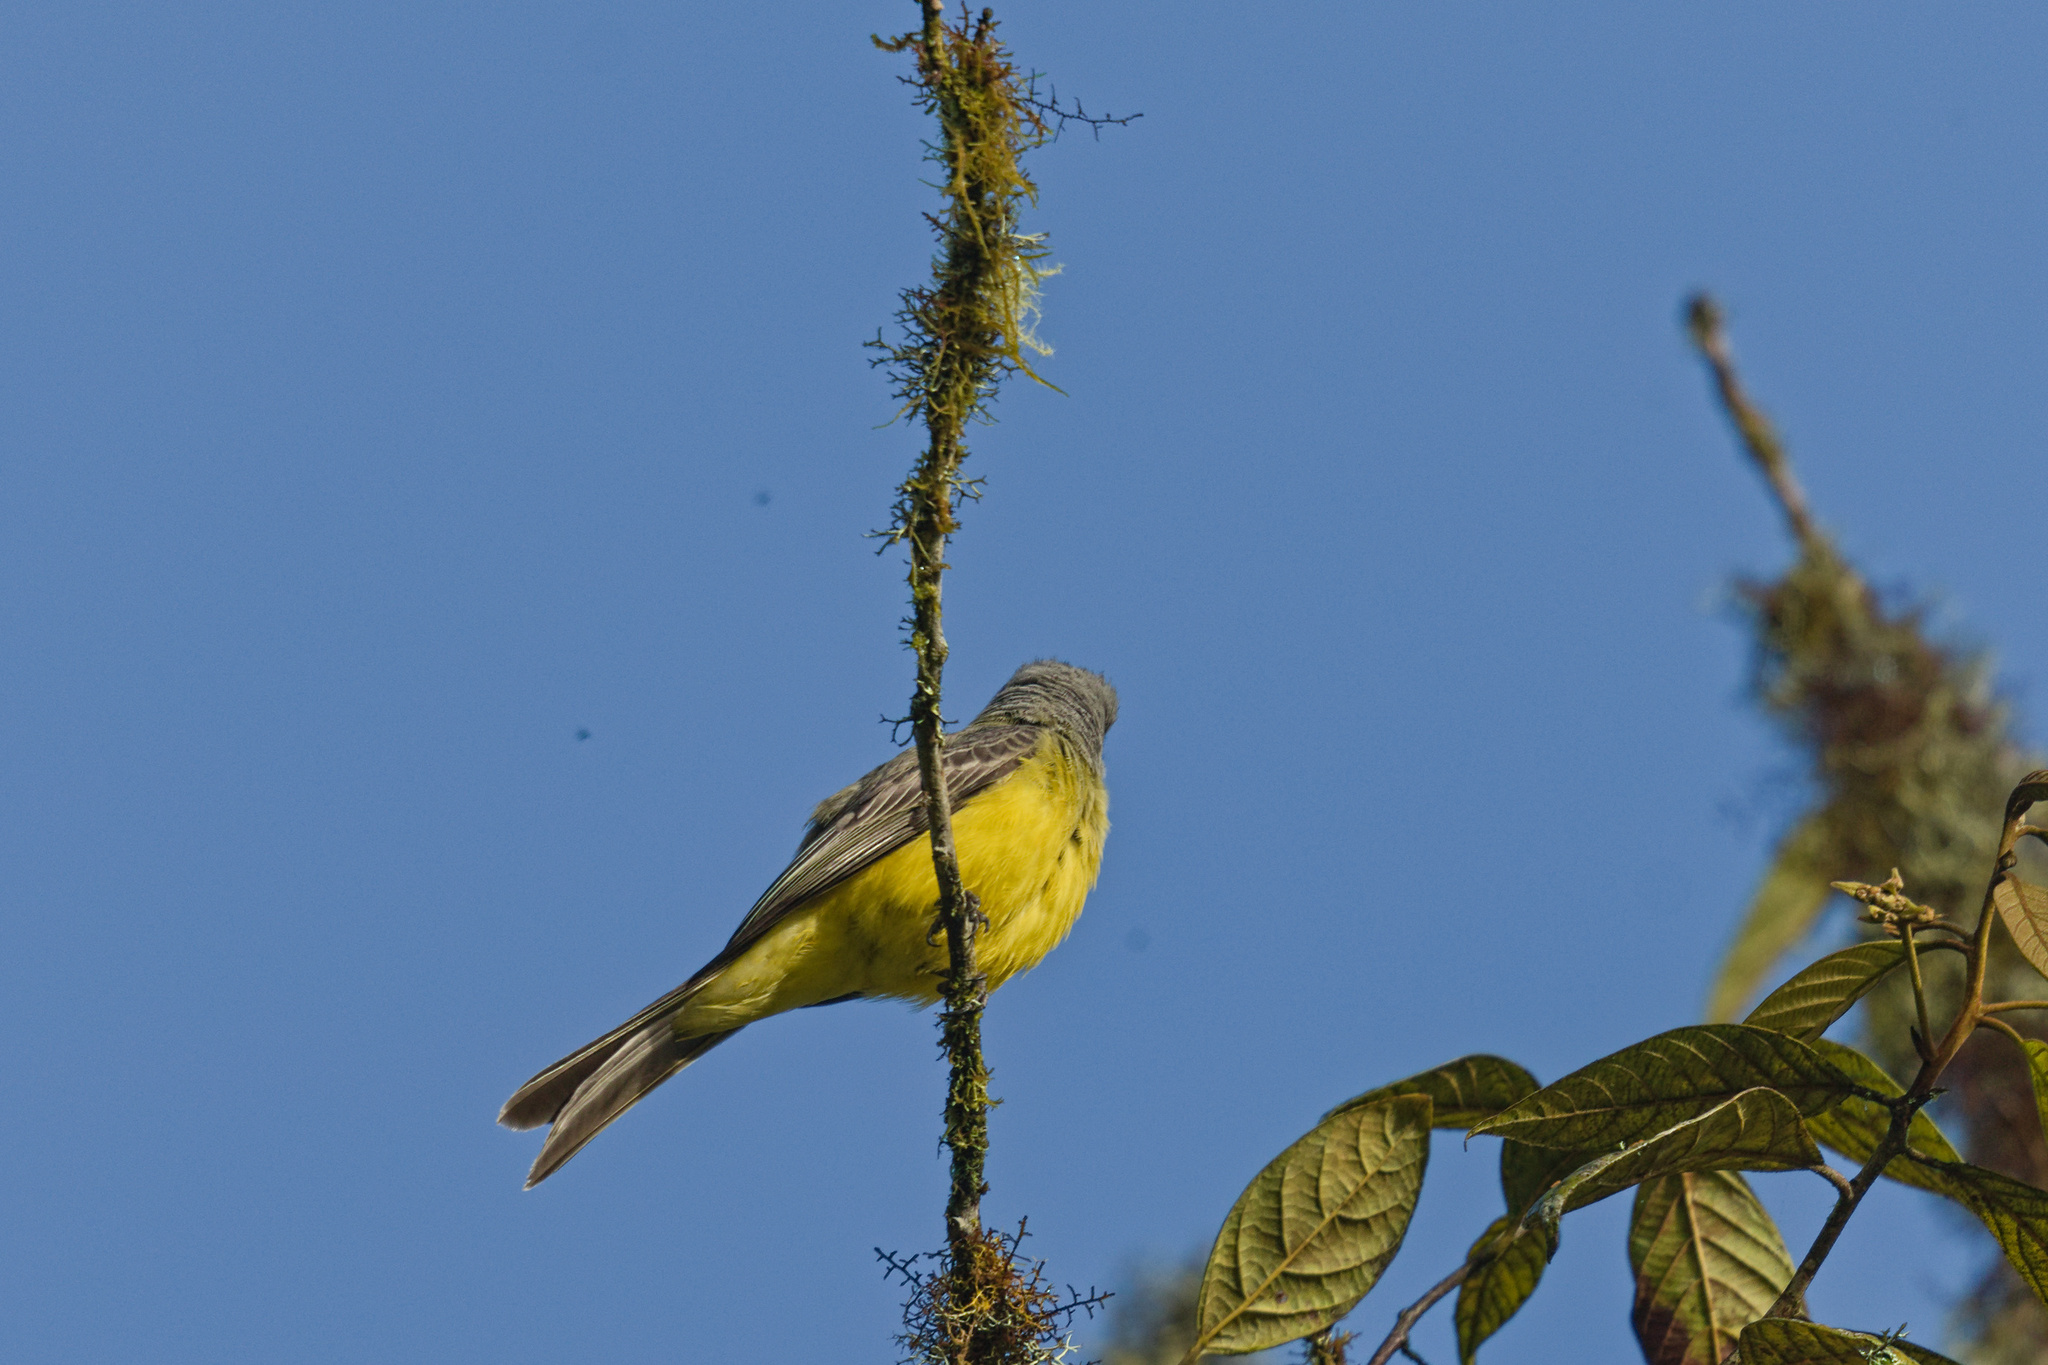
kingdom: Animalia
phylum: Chordata
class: Aves
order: Passeriformes
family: Tyrannidae
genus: Tyrannus
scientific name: Tyrannus melancholicus
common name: Tropical kingbird
